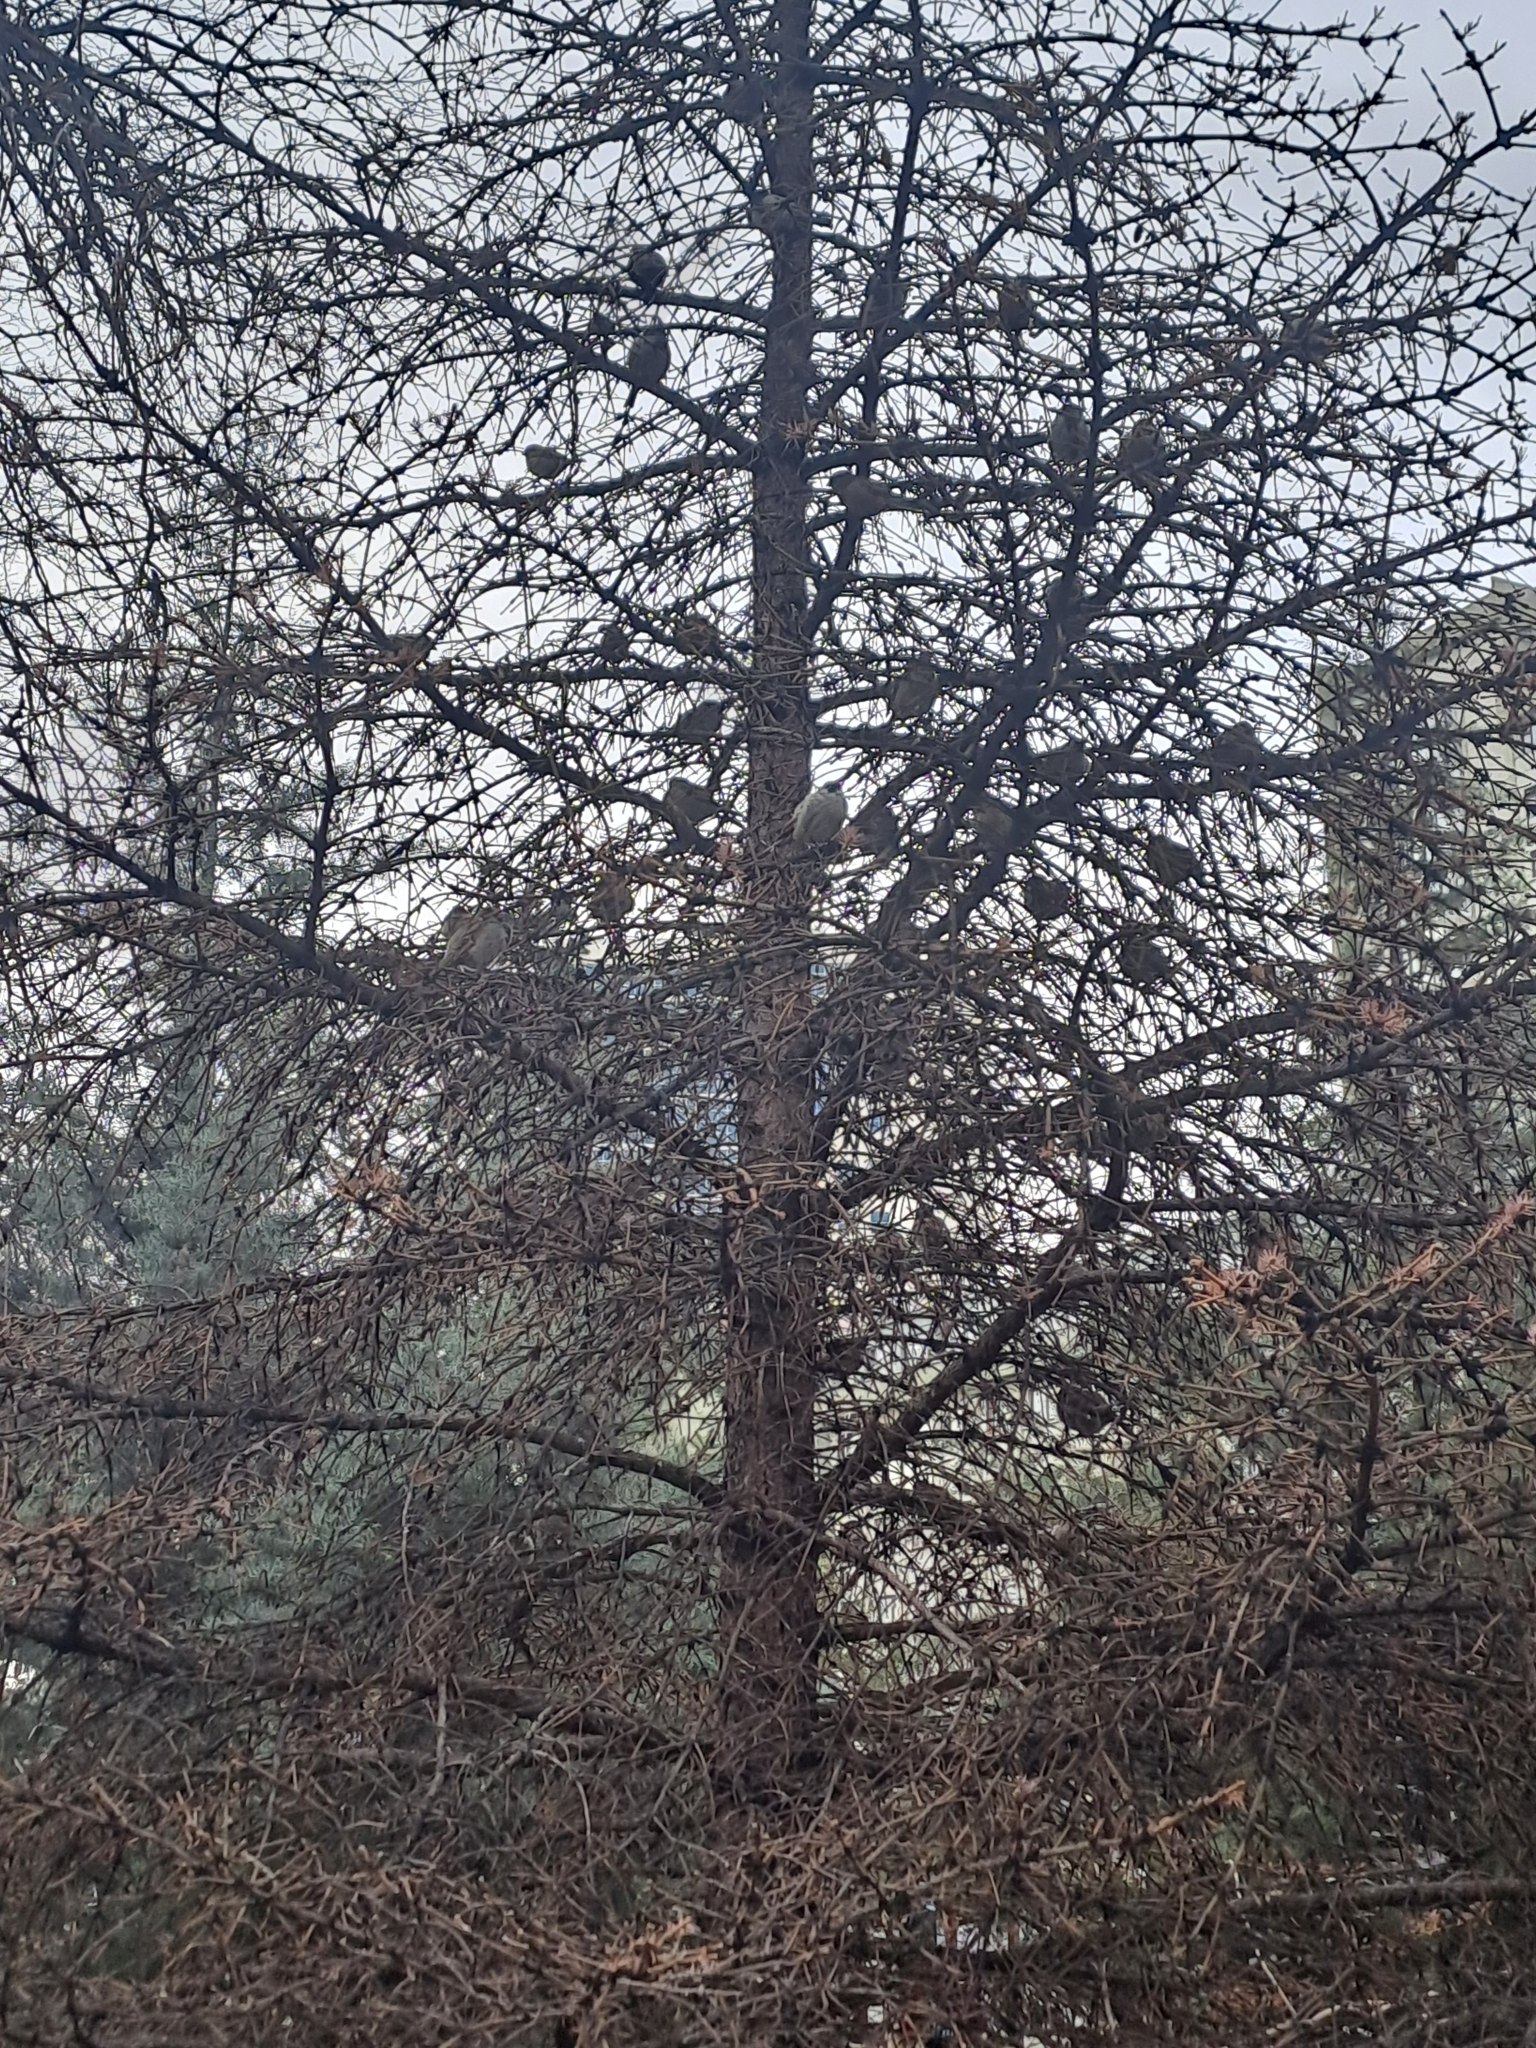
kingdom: Animalia
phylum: Chordata
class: Aves
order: Passeriformes
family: Passeridae
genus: Passer
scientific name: Passer domesticus
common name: House sparrow
